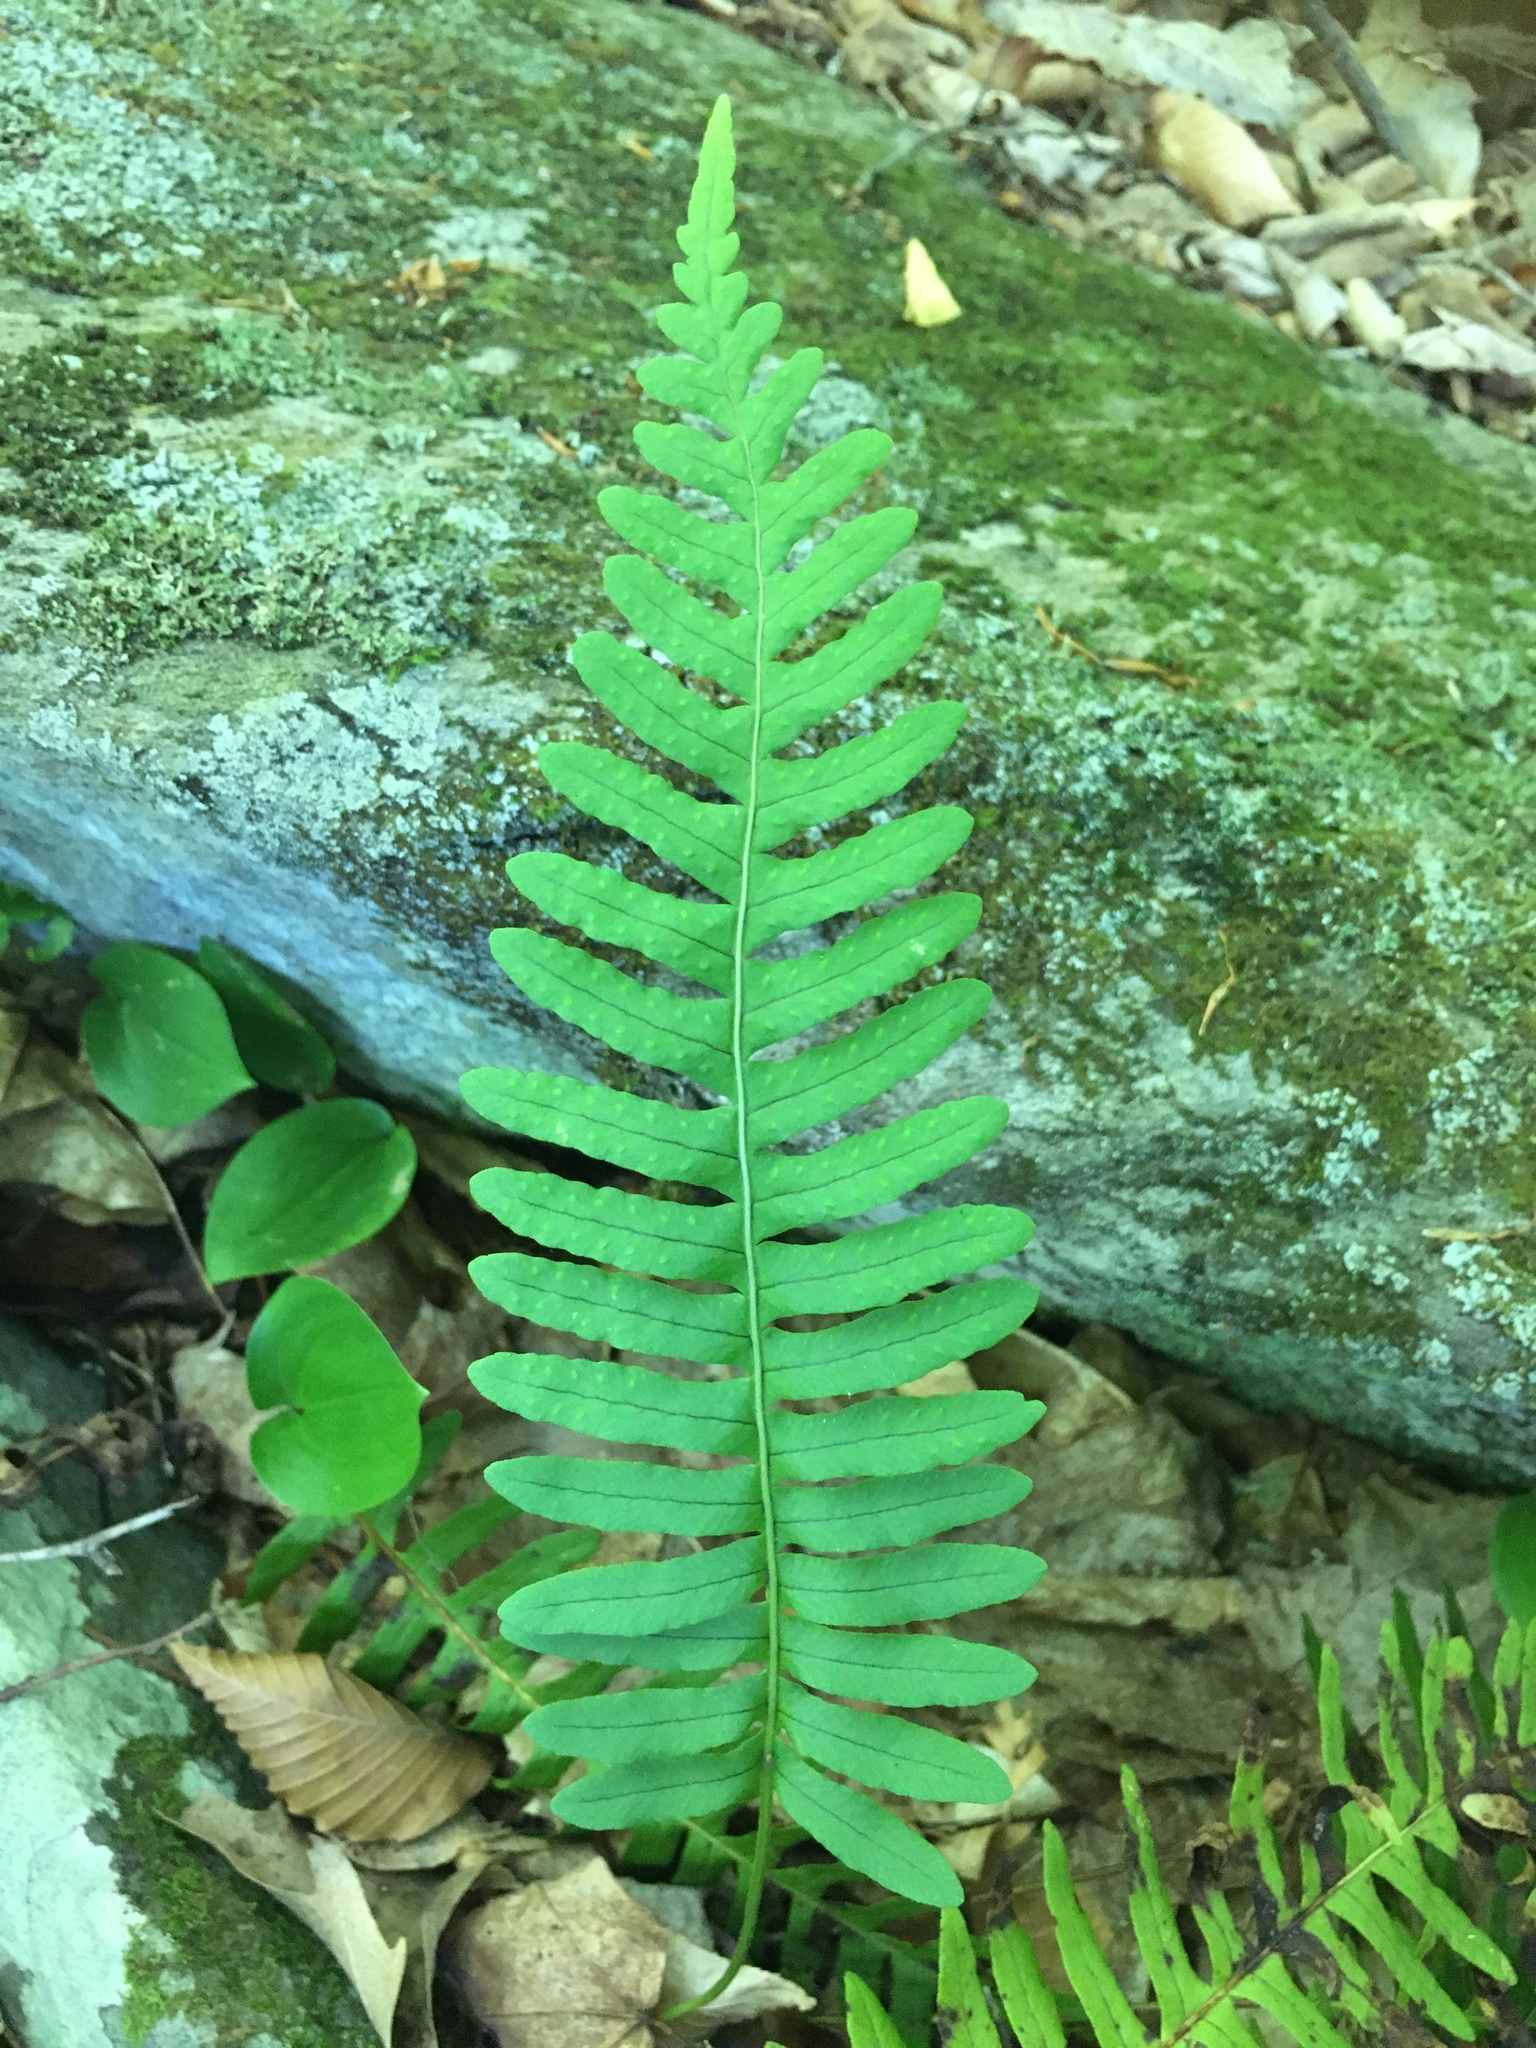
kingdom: Plantae
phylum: Tracheophyta
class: Polypodiopsida
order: Polypodiales
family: Polypodiaceae
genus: Polypodium
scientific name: Polypodium virginianum
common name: American wall fern
